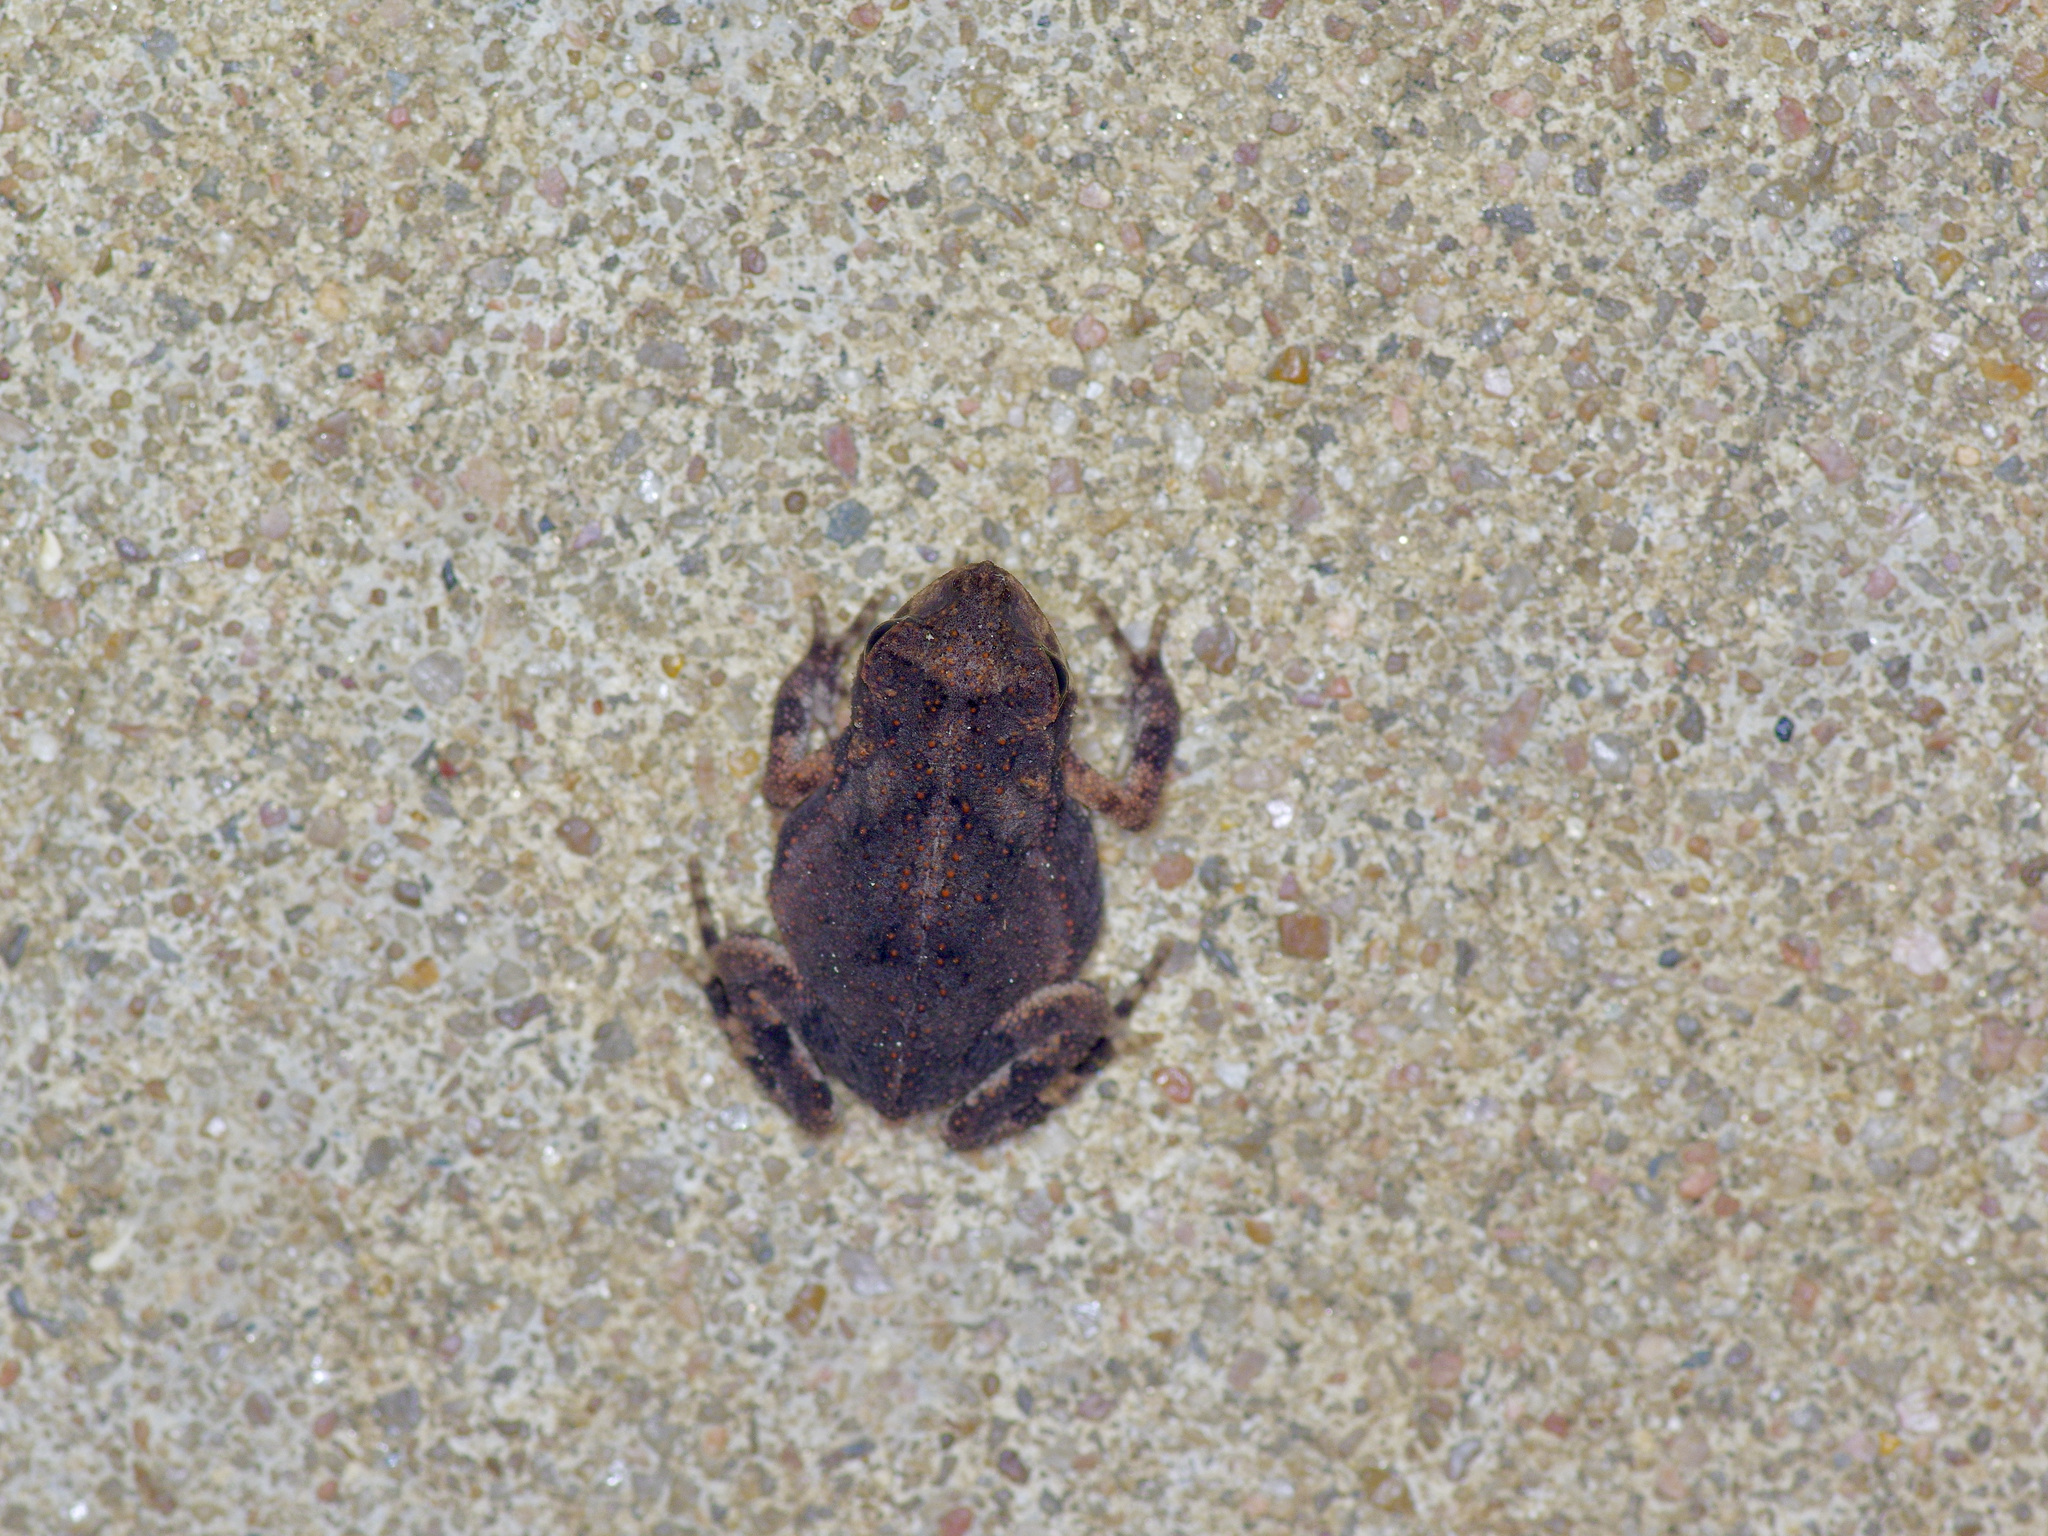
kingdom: Animalia
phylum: Chordata
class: Amphibia
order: Anura
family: Bufonidae
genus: Incilius
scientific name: Incilius nebulifer
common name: Gulf coast toad
